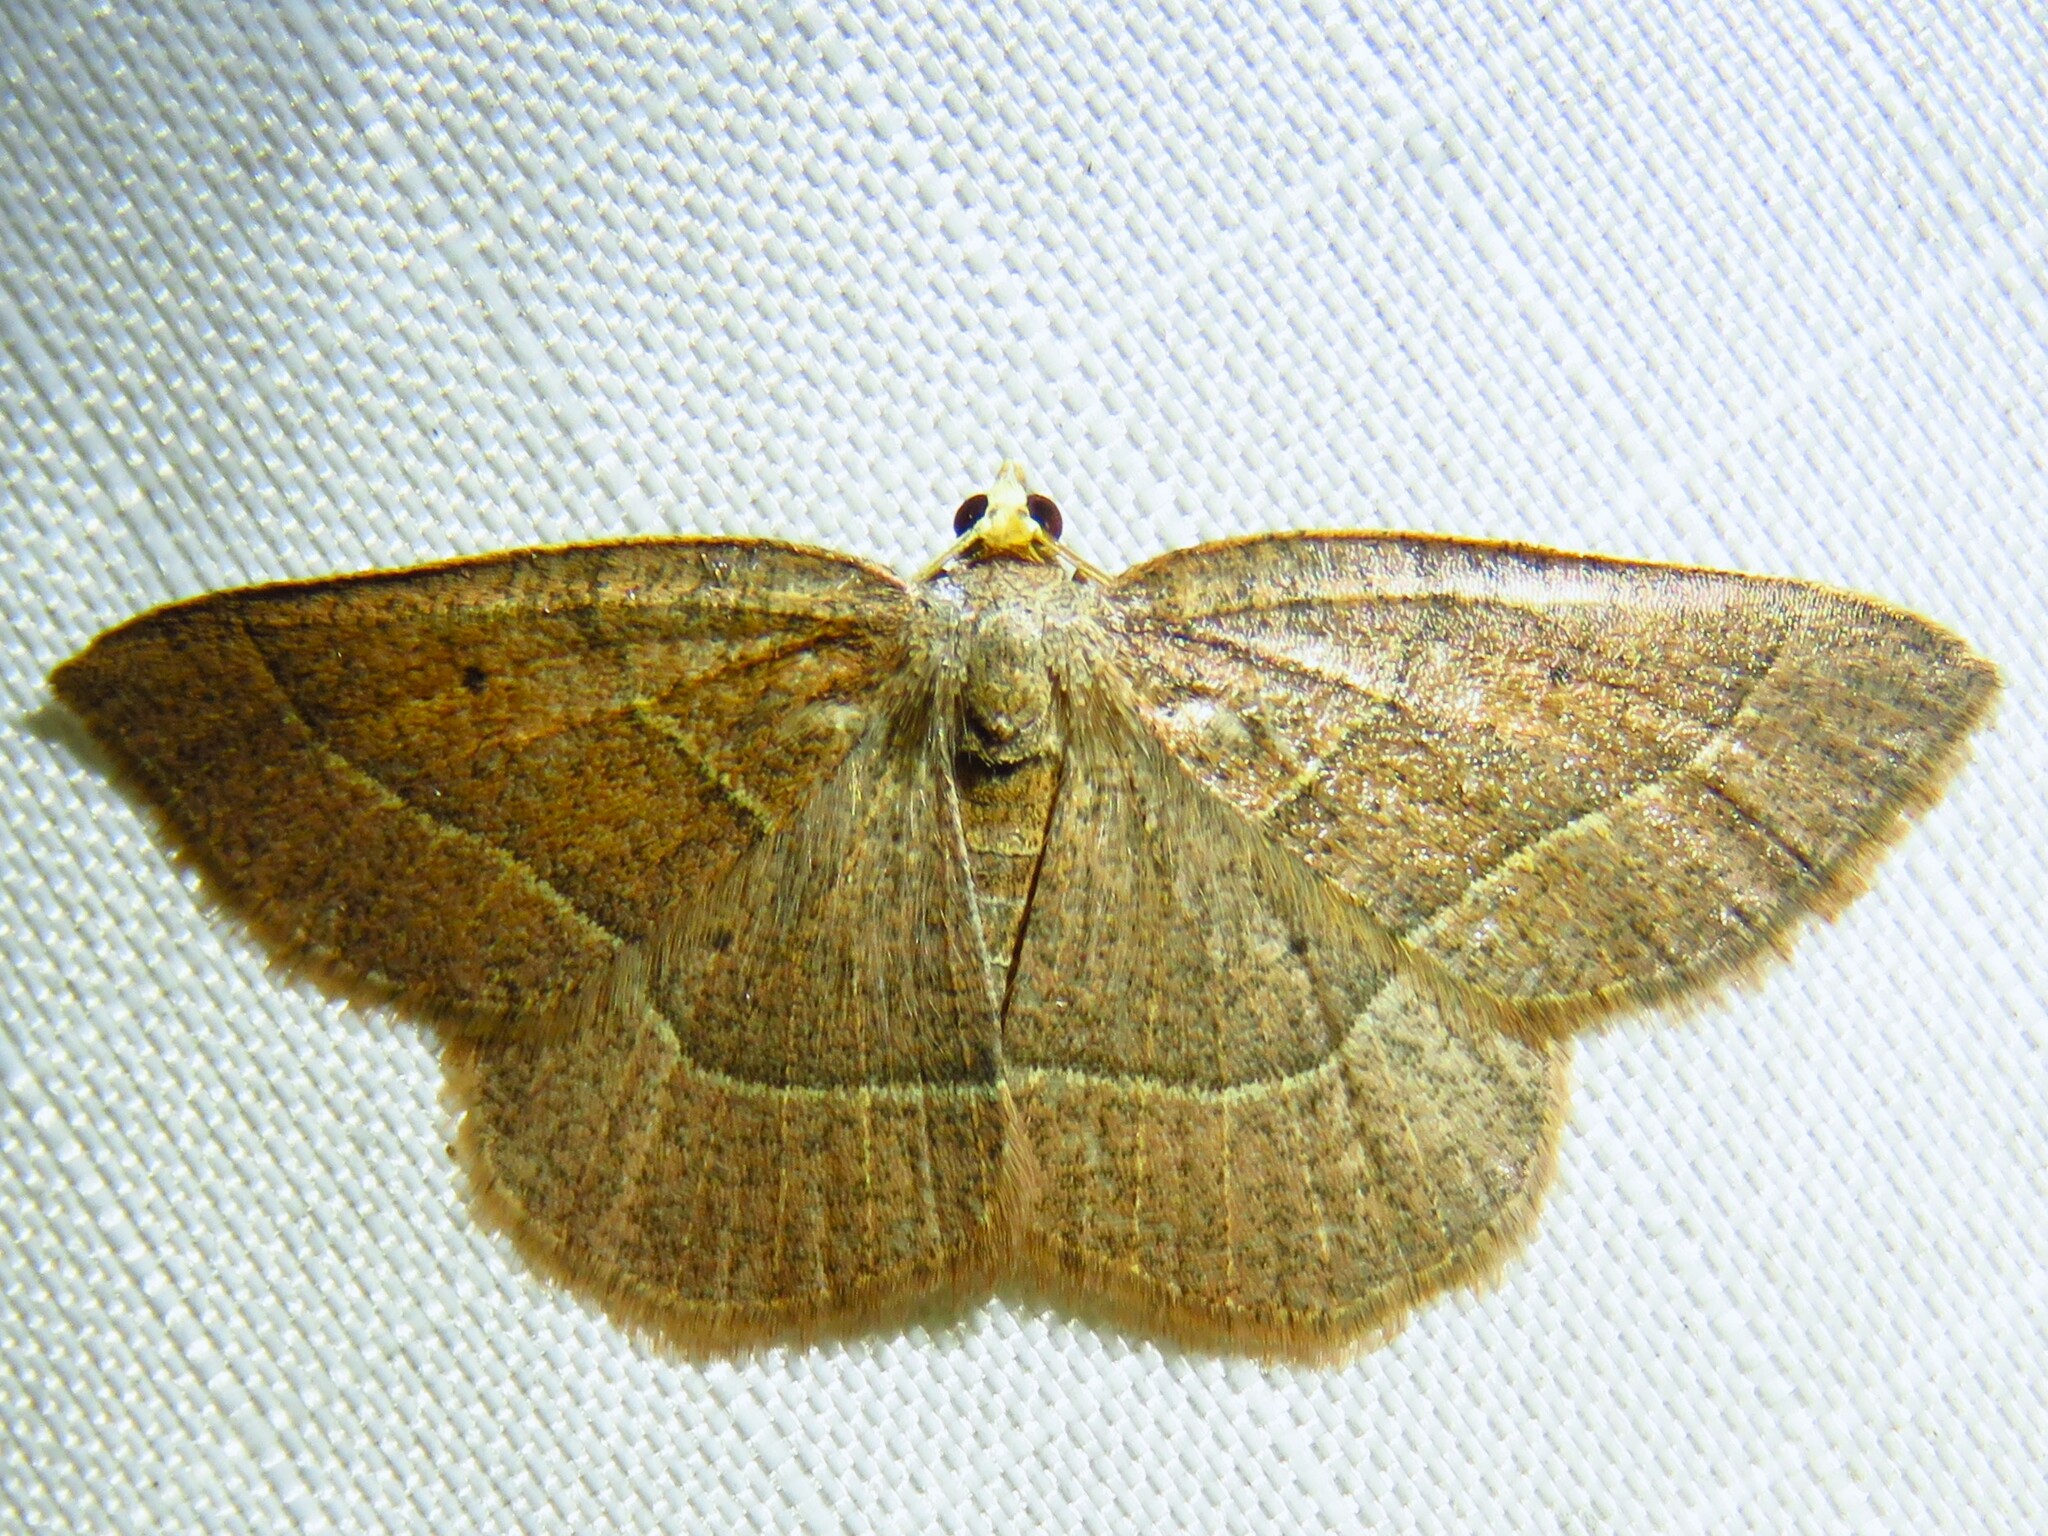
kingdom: Animalia
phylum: Arthropoda
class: Insecta
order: Lepidoptera
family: Geometridae
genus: Episemasia
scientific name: Episemasia cervinaria
